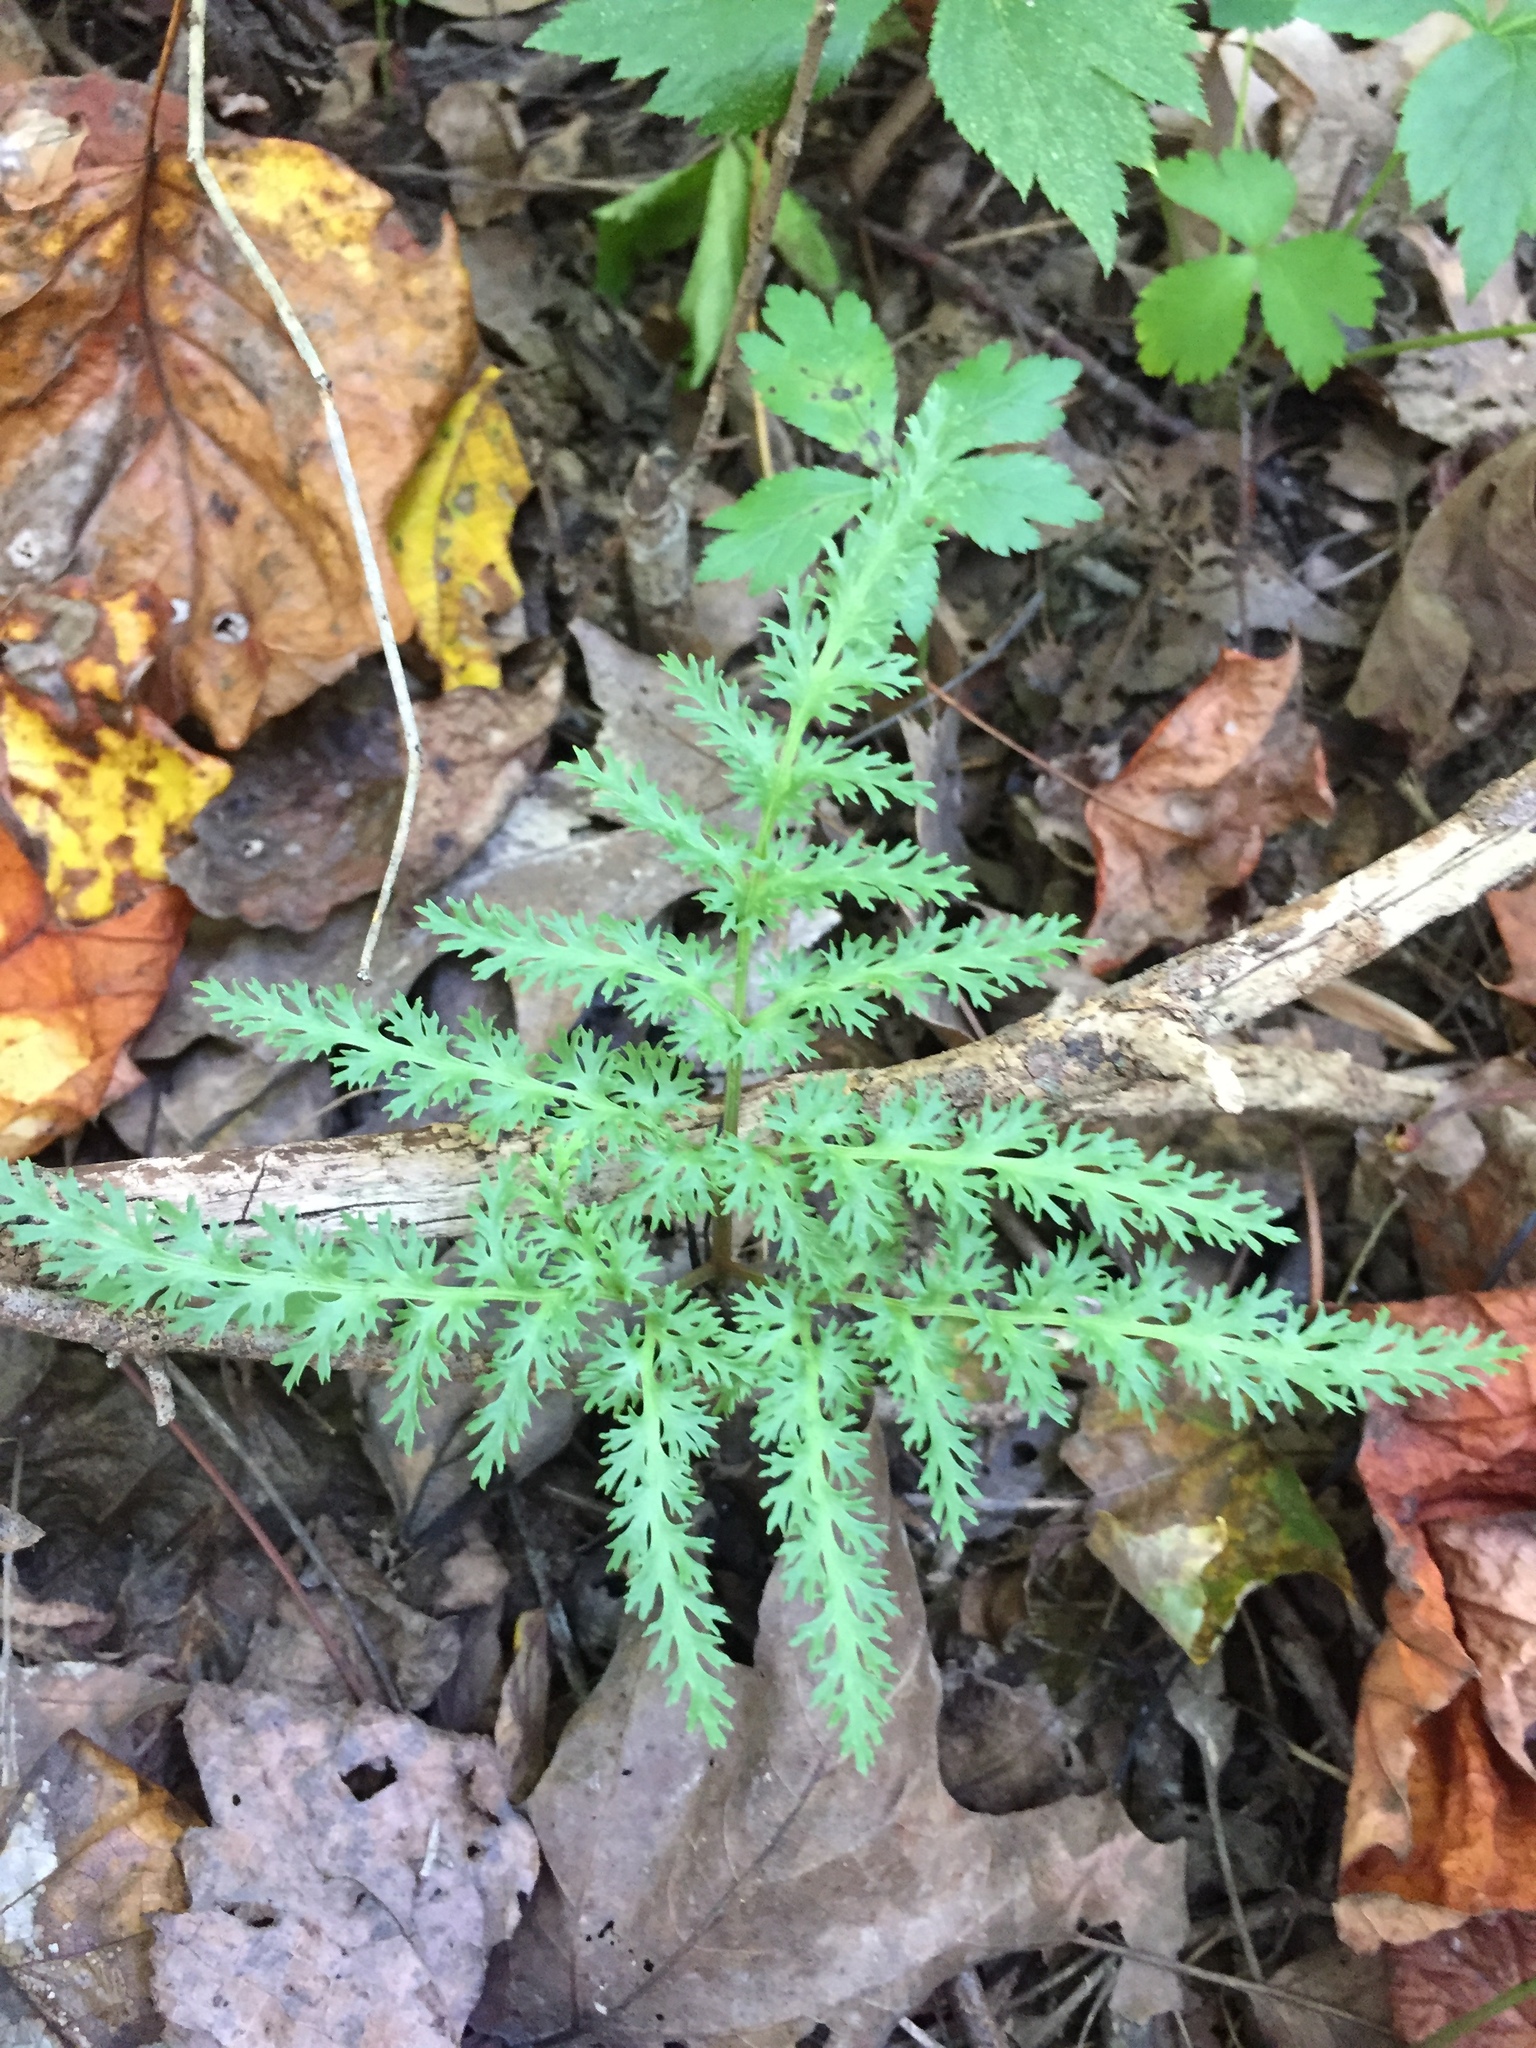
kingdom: Plantae
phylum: Tracheophyta
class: Polypodiopsida
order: Ophioglossales
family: Ophioglossaceae
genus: Sceptridium
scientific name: Sceptridium dissectum
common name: Cut-leaved grapefern
